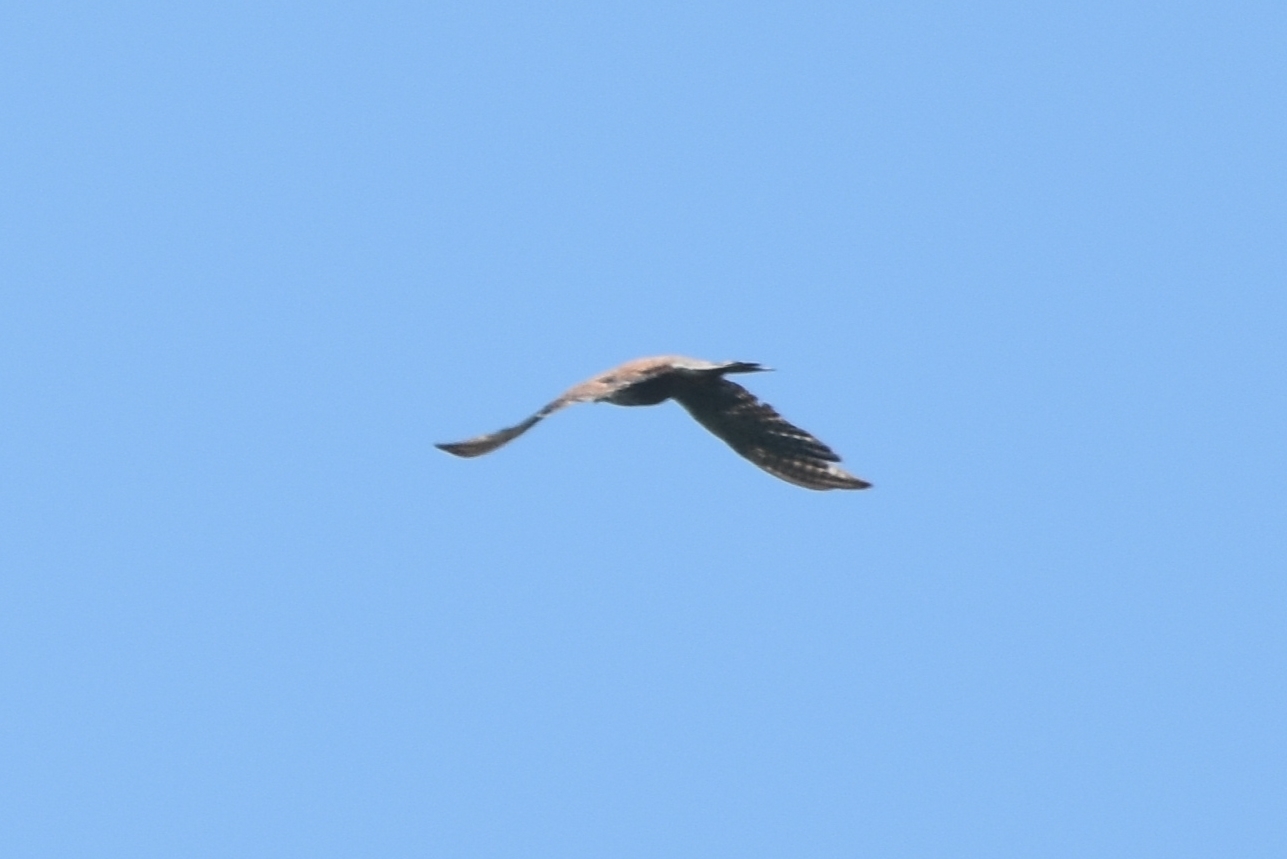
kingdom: Animalia
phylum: Chordata
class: Aves
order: Falconiformes
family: Falconidae
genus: Falco
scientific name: Falco tinnunculus
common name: Common kestrel
